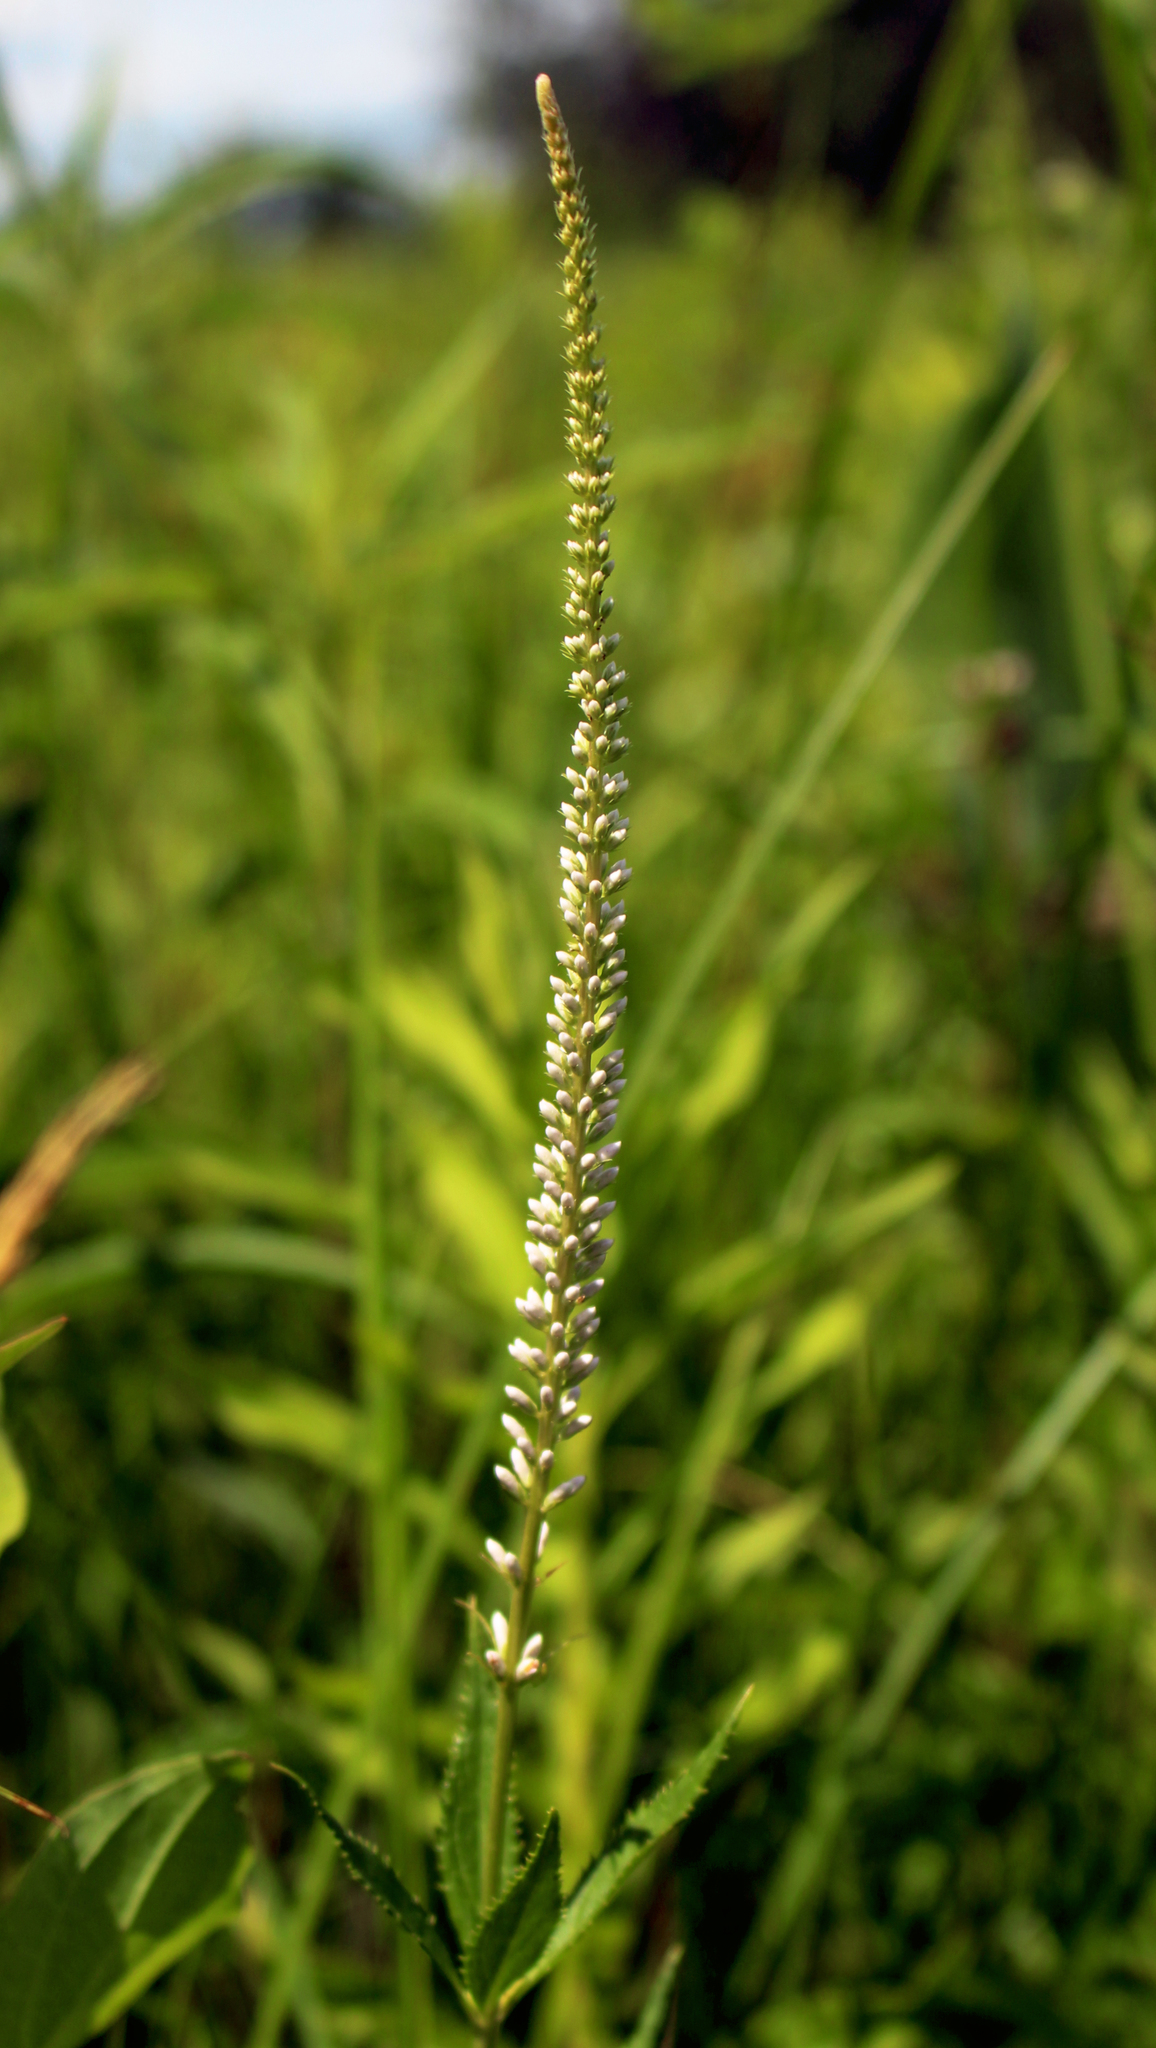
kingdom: Plantae
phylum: Tracheophyta
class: Magnoliopsida
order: Lamiales
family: Plantaginaceae
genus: Veronicastrum
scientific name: Veronicastrum virginicum
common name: Blackroot
